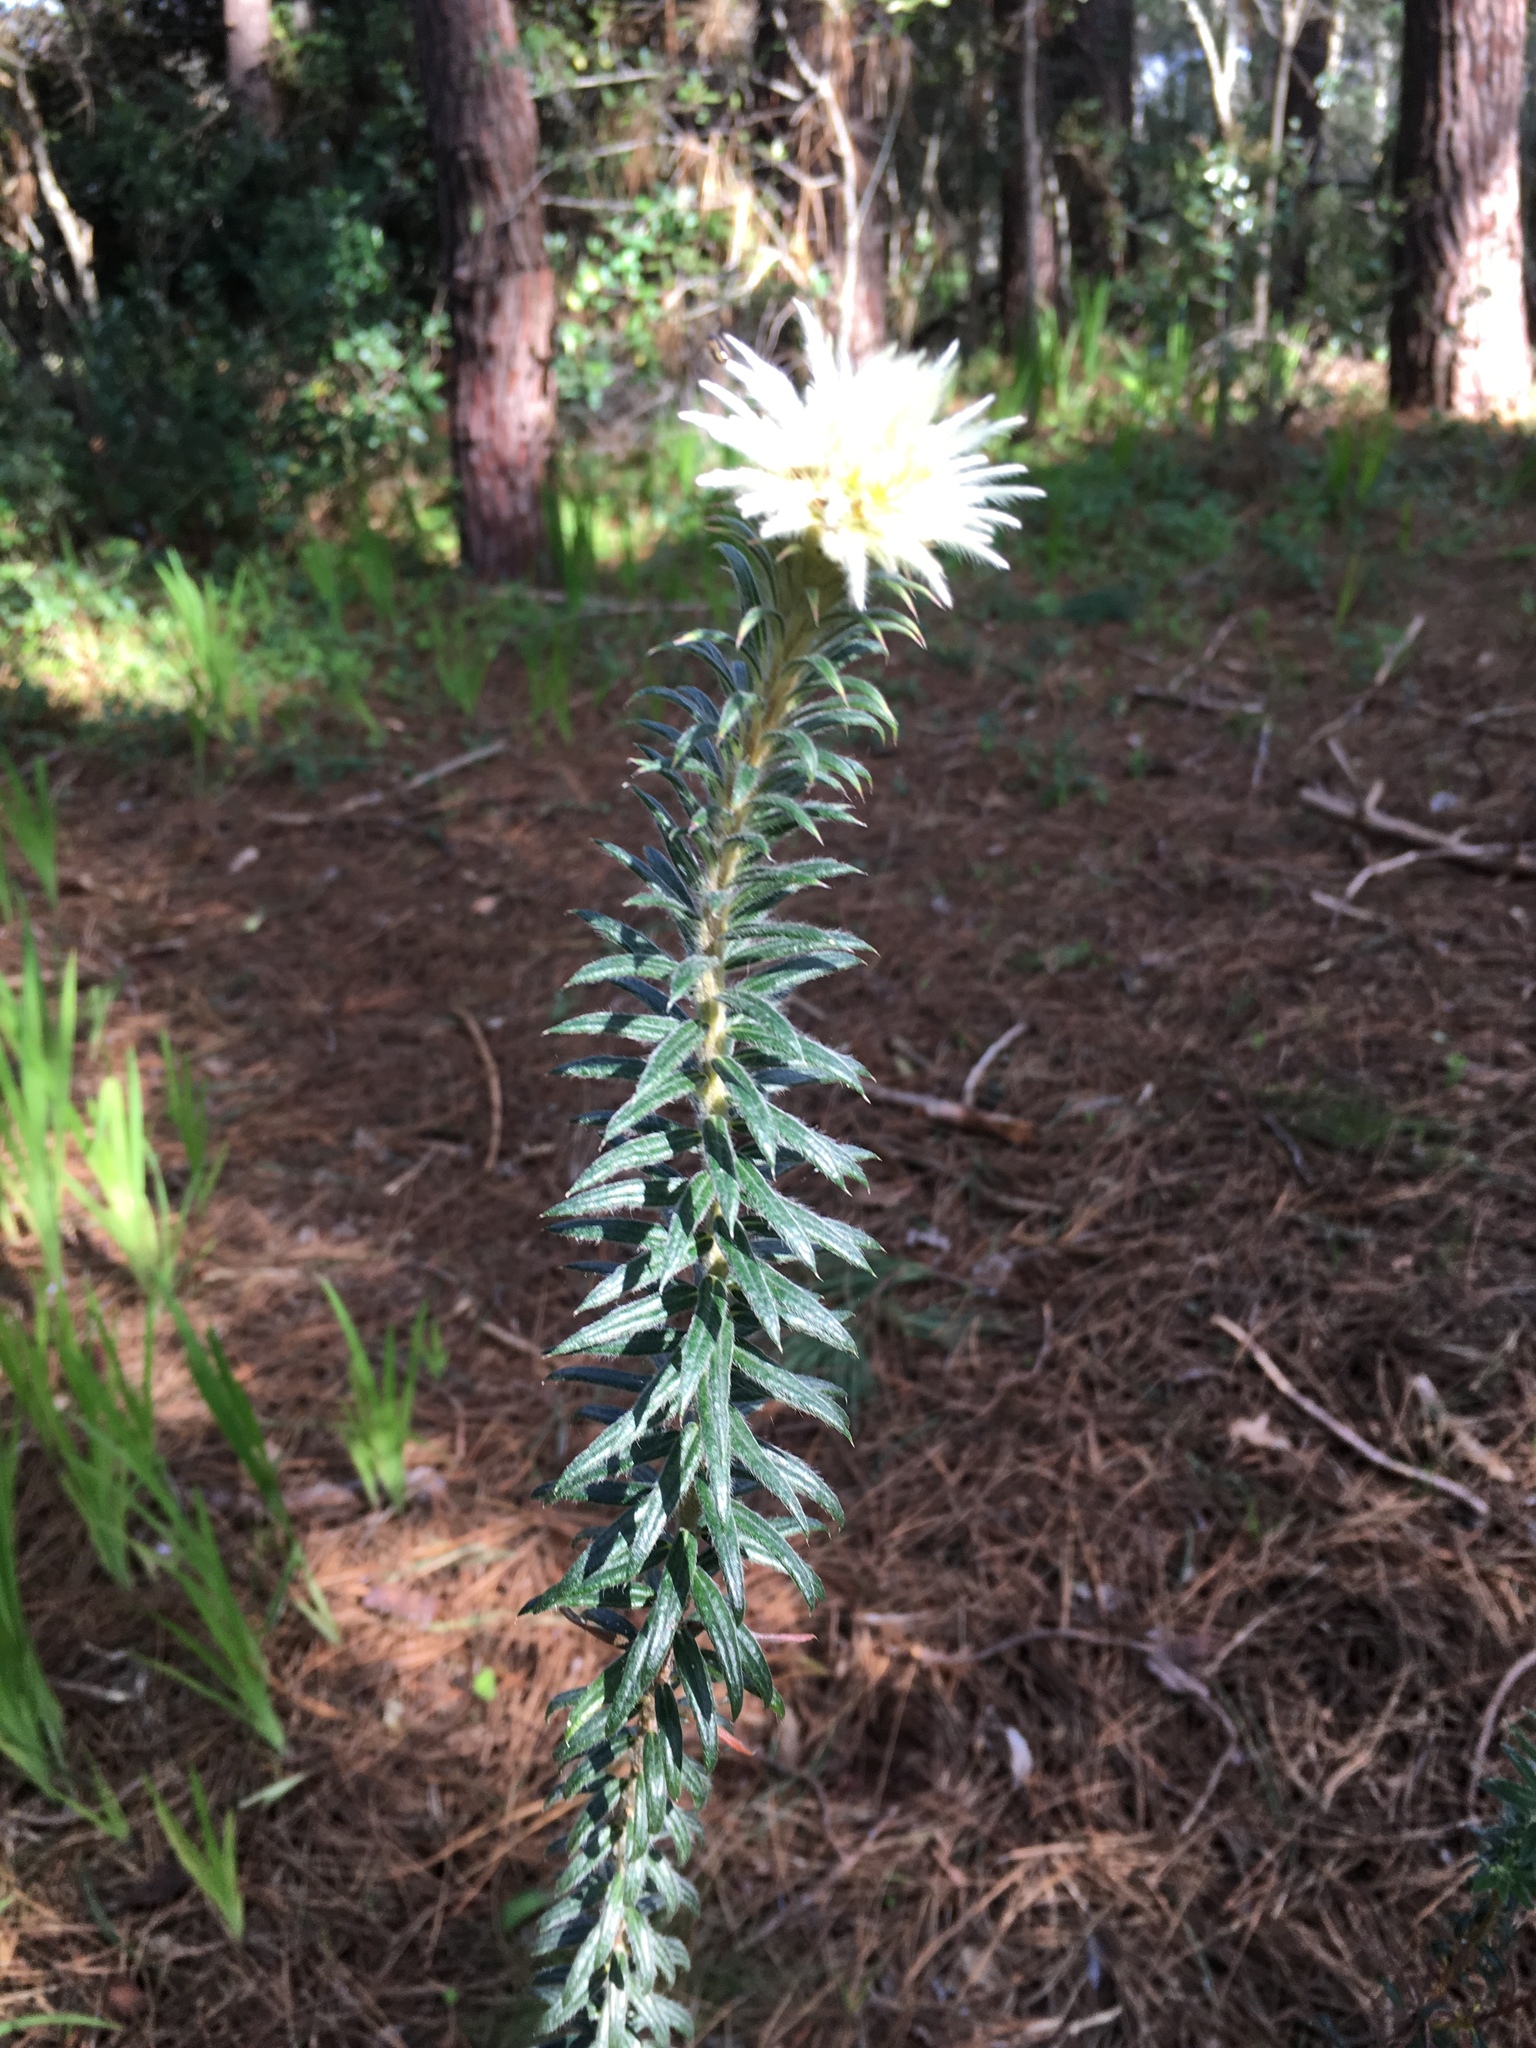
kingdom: Plantae
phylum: Tracheophyta
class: Magnoliopsida
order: Rosales
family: Rhamnaceae
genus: Phylica
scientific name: Phylica pubescens
